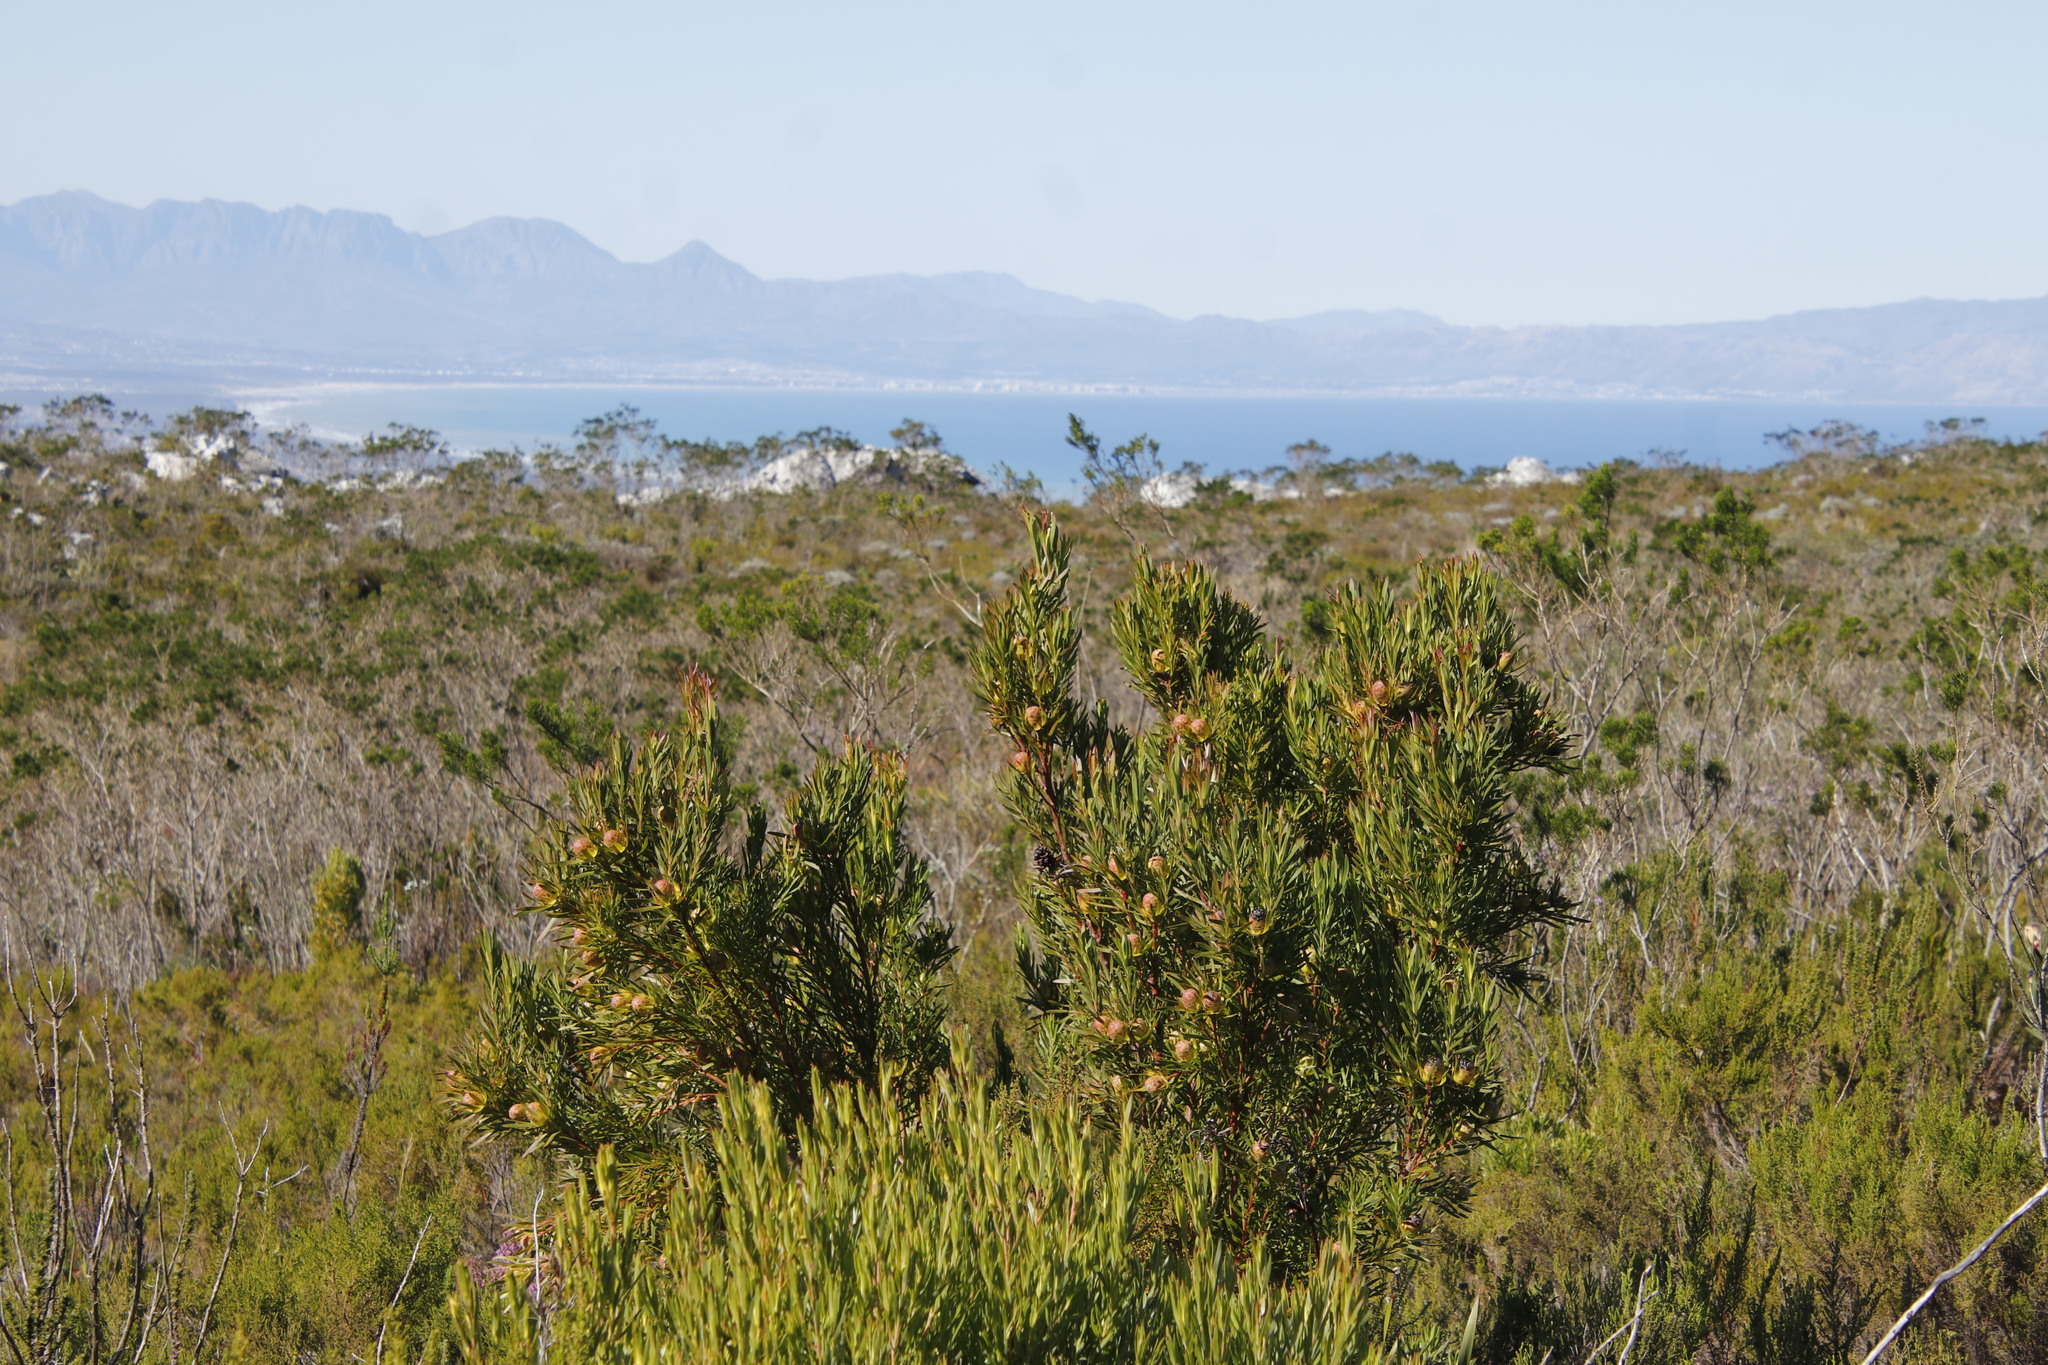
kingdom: Plantae
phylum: Tracheophyta
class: Magnoliopsida
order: Proteales
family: Proteaceae
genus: Leucadendron
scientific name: Leucadendron xanthoconus
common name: Sickle-leaf conebush
